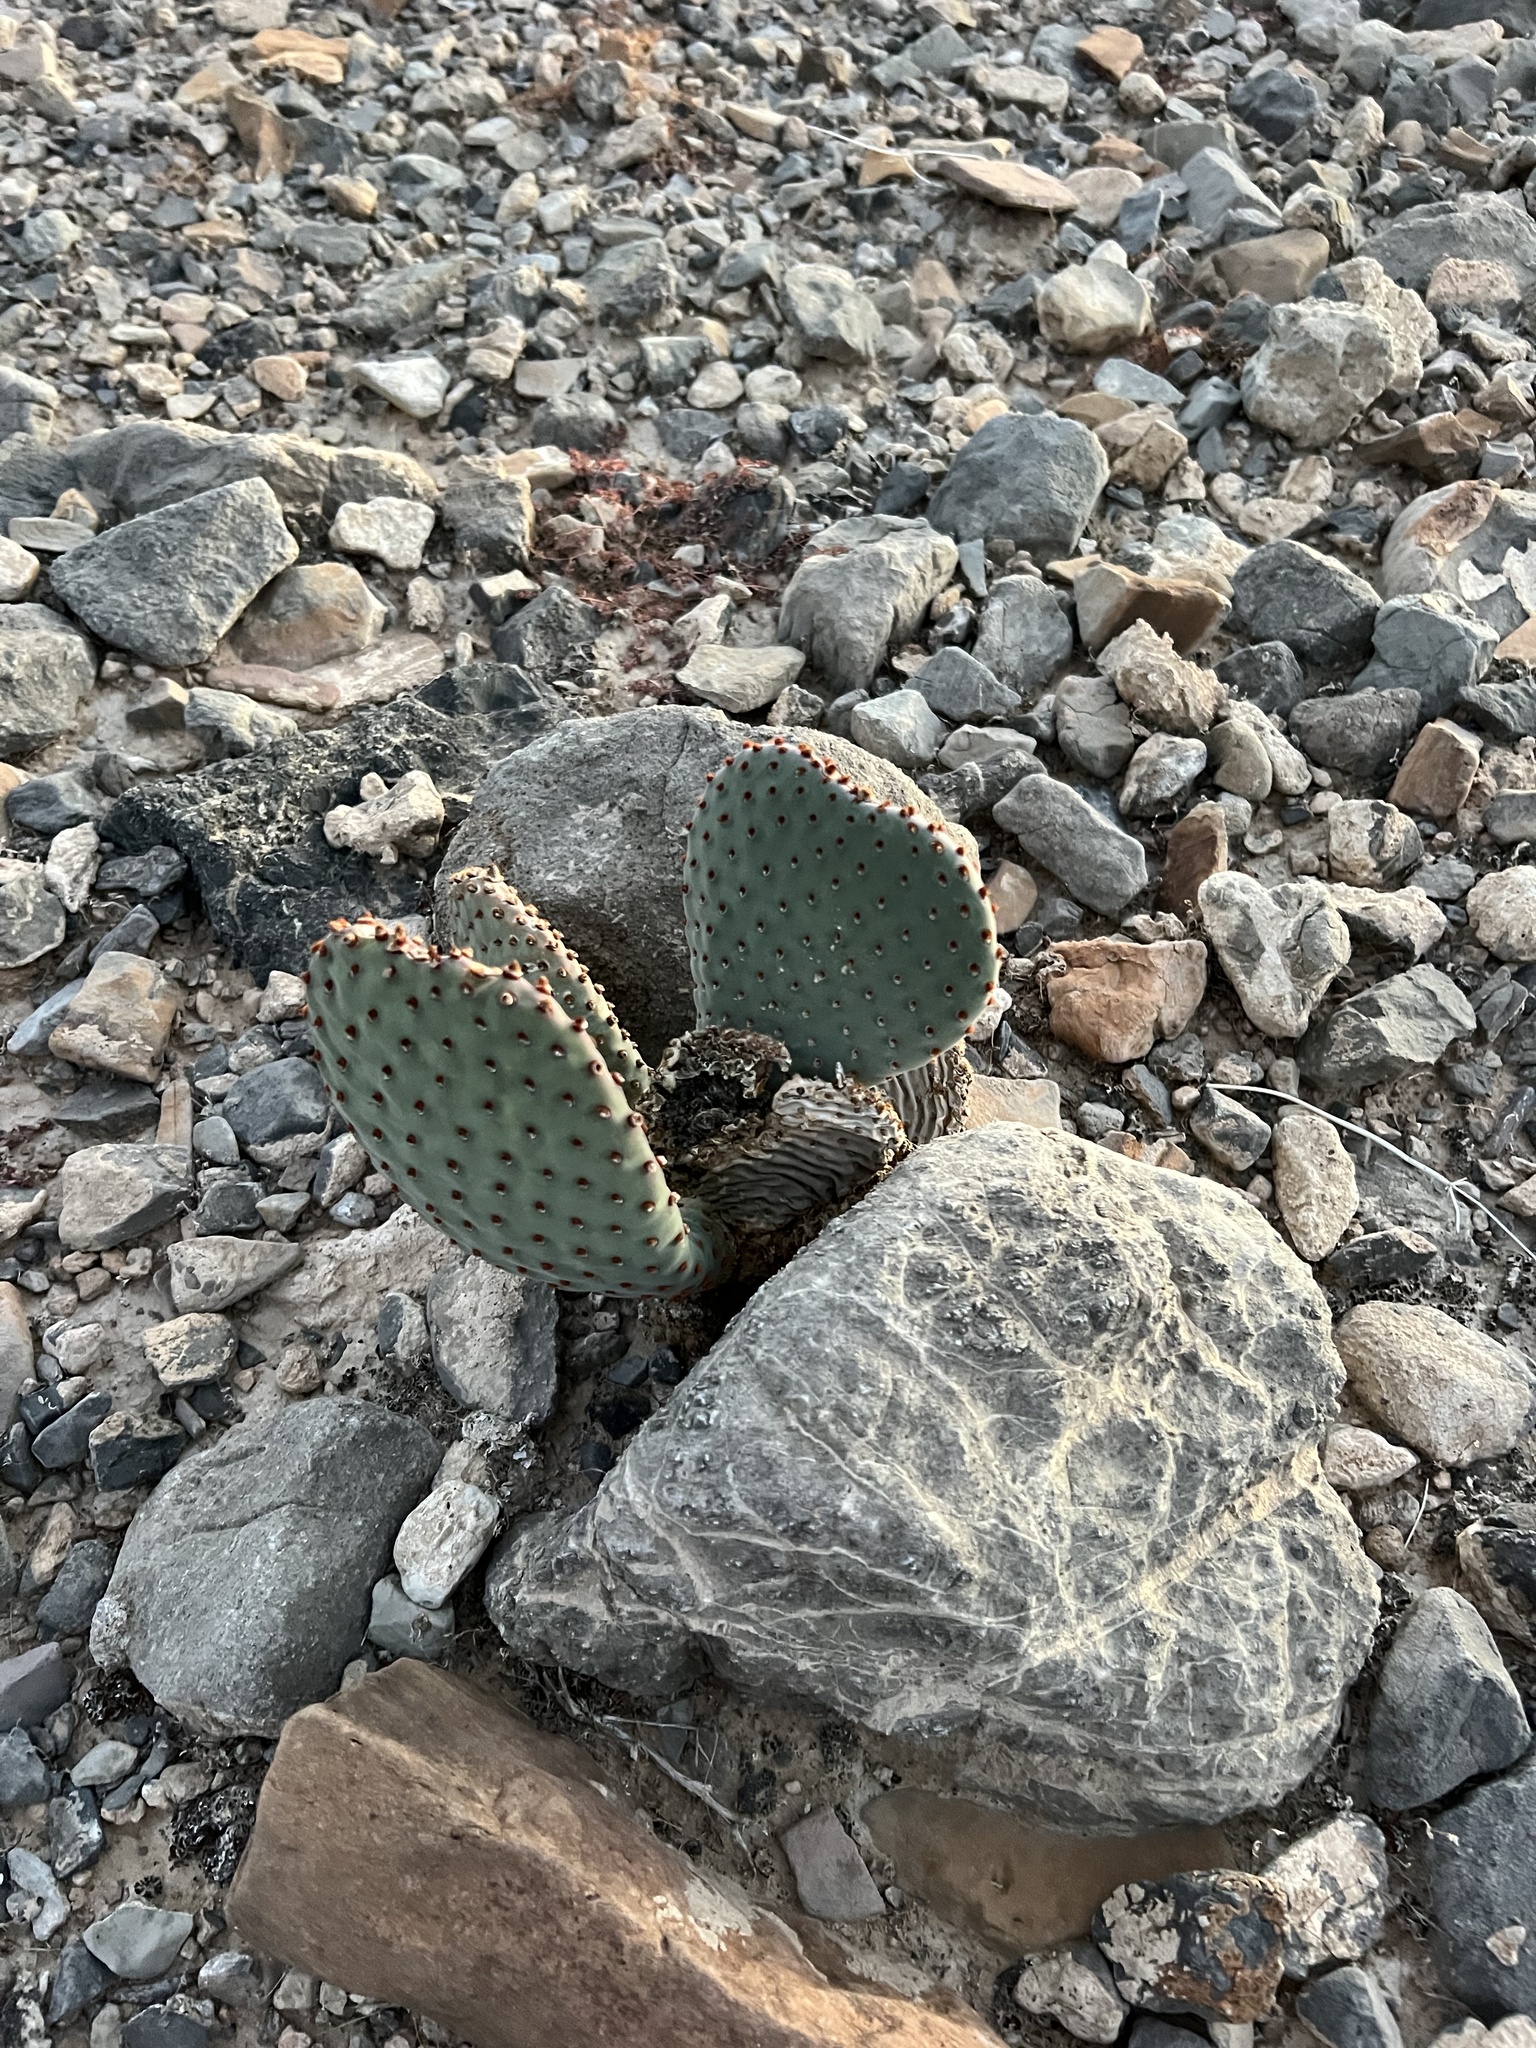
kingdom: Plantae
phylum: Tracheophyta
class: Magnoliopsida
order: Caryophyllales
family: Cactaceae
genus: Opuntia
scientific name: Opuntia basilaris
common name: Beavertail prickly-pear
